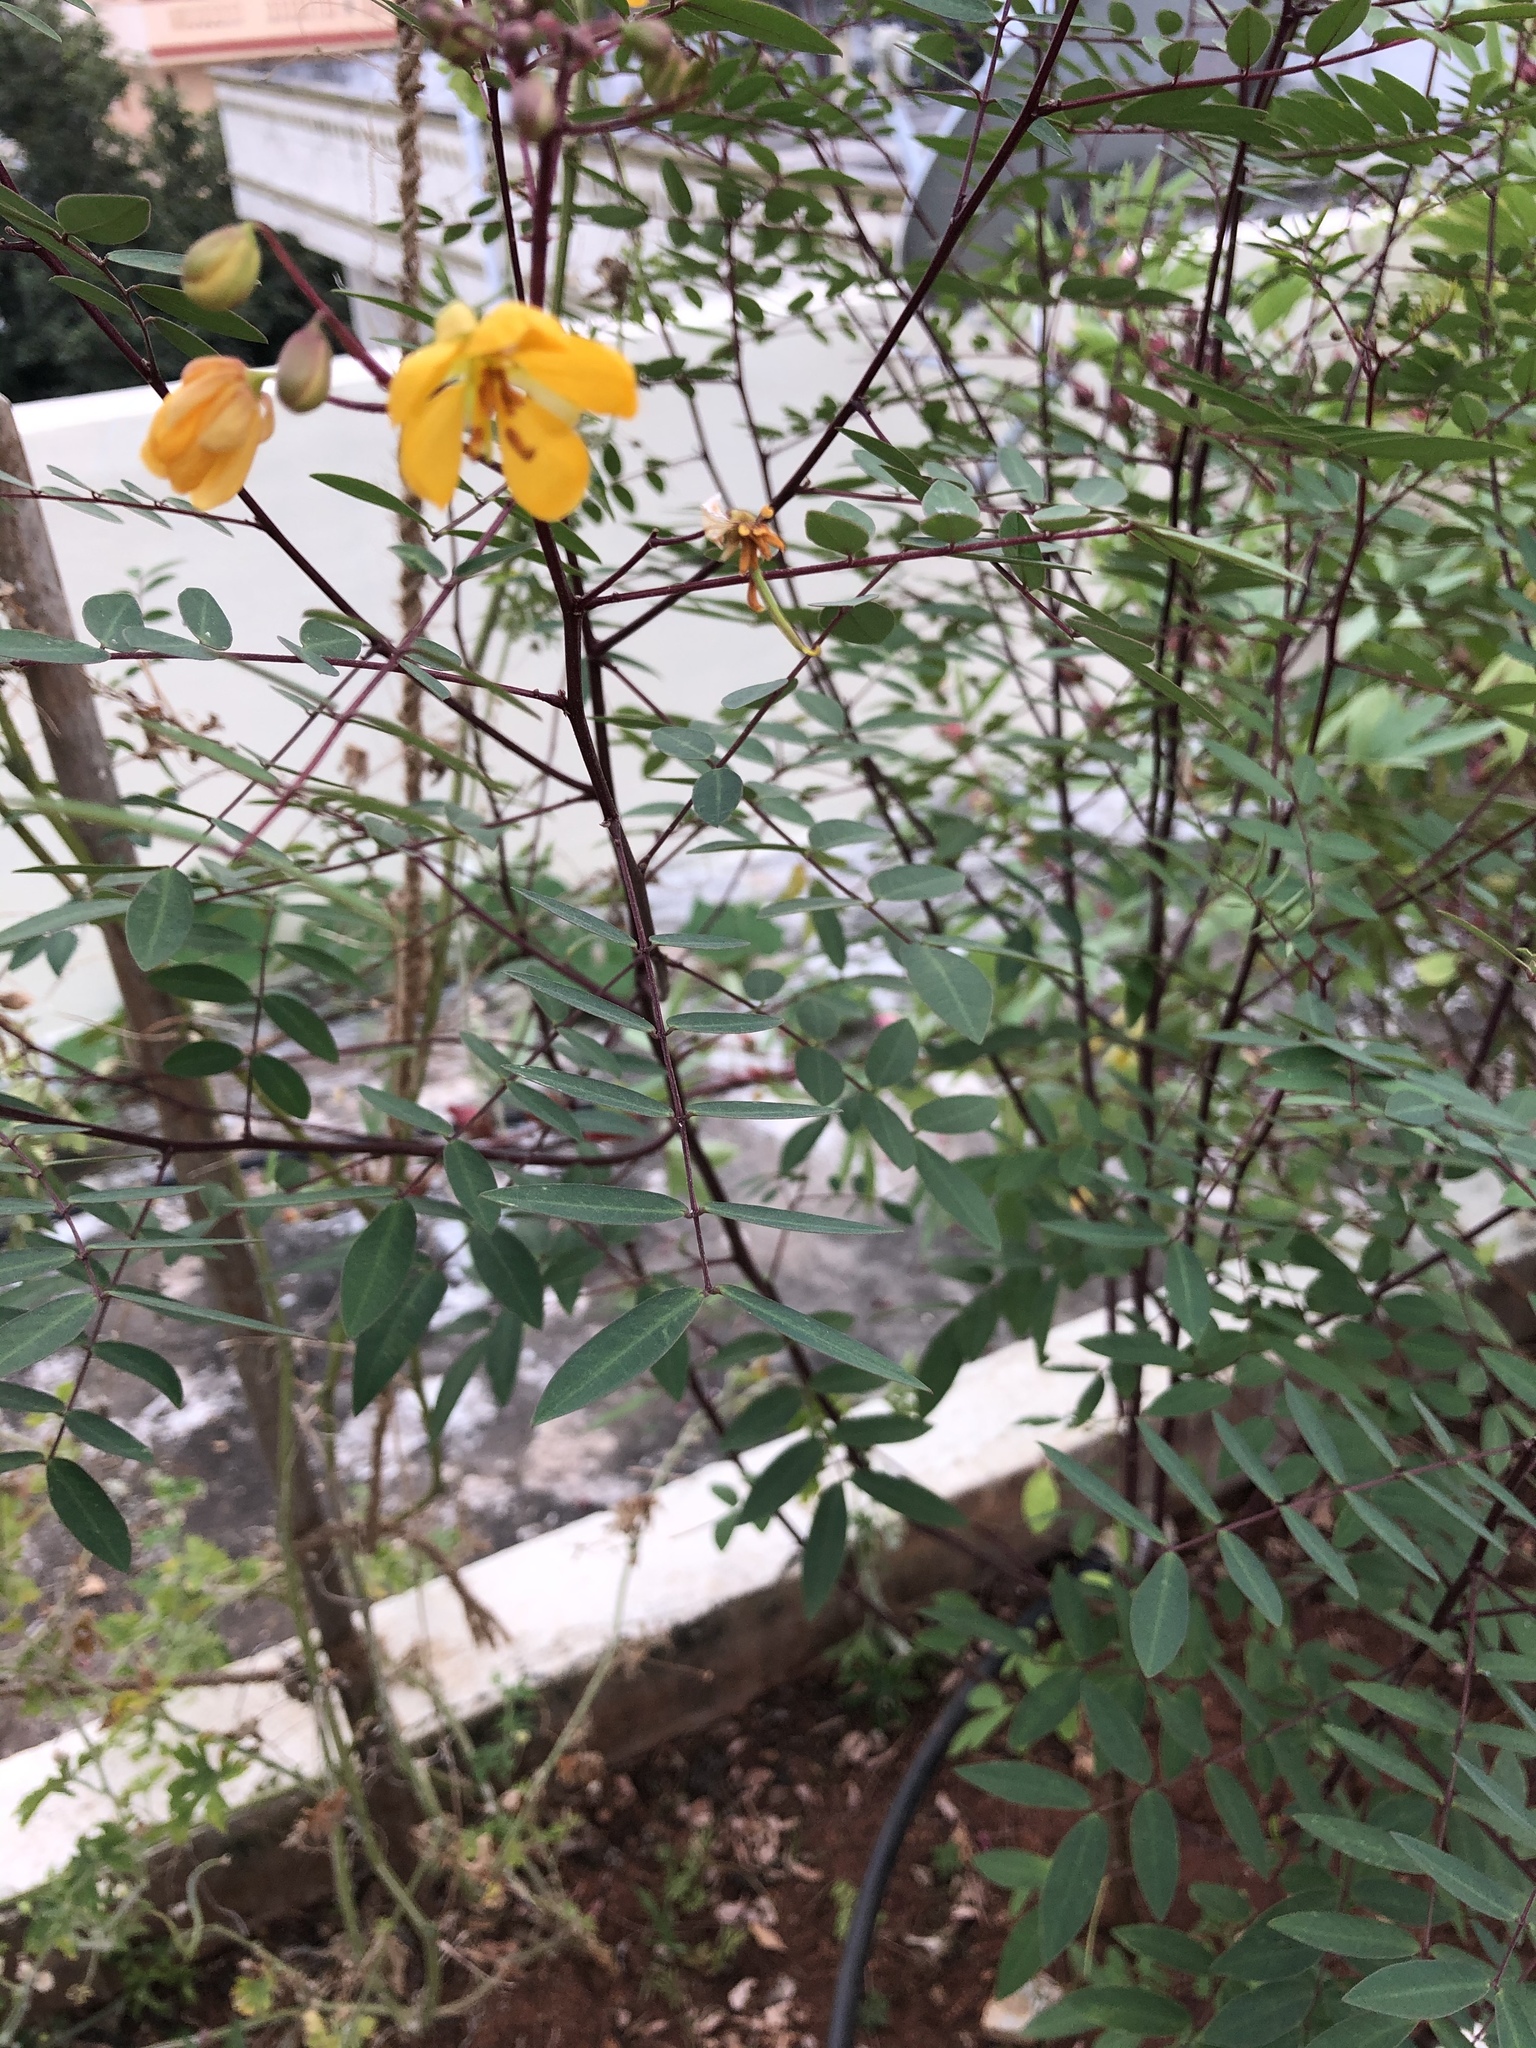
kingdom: Plantae
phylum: Tracheophyta
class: Magnoliopsida
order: Fabales
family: Fabaceae
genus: Senna
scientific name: Senna sophera
